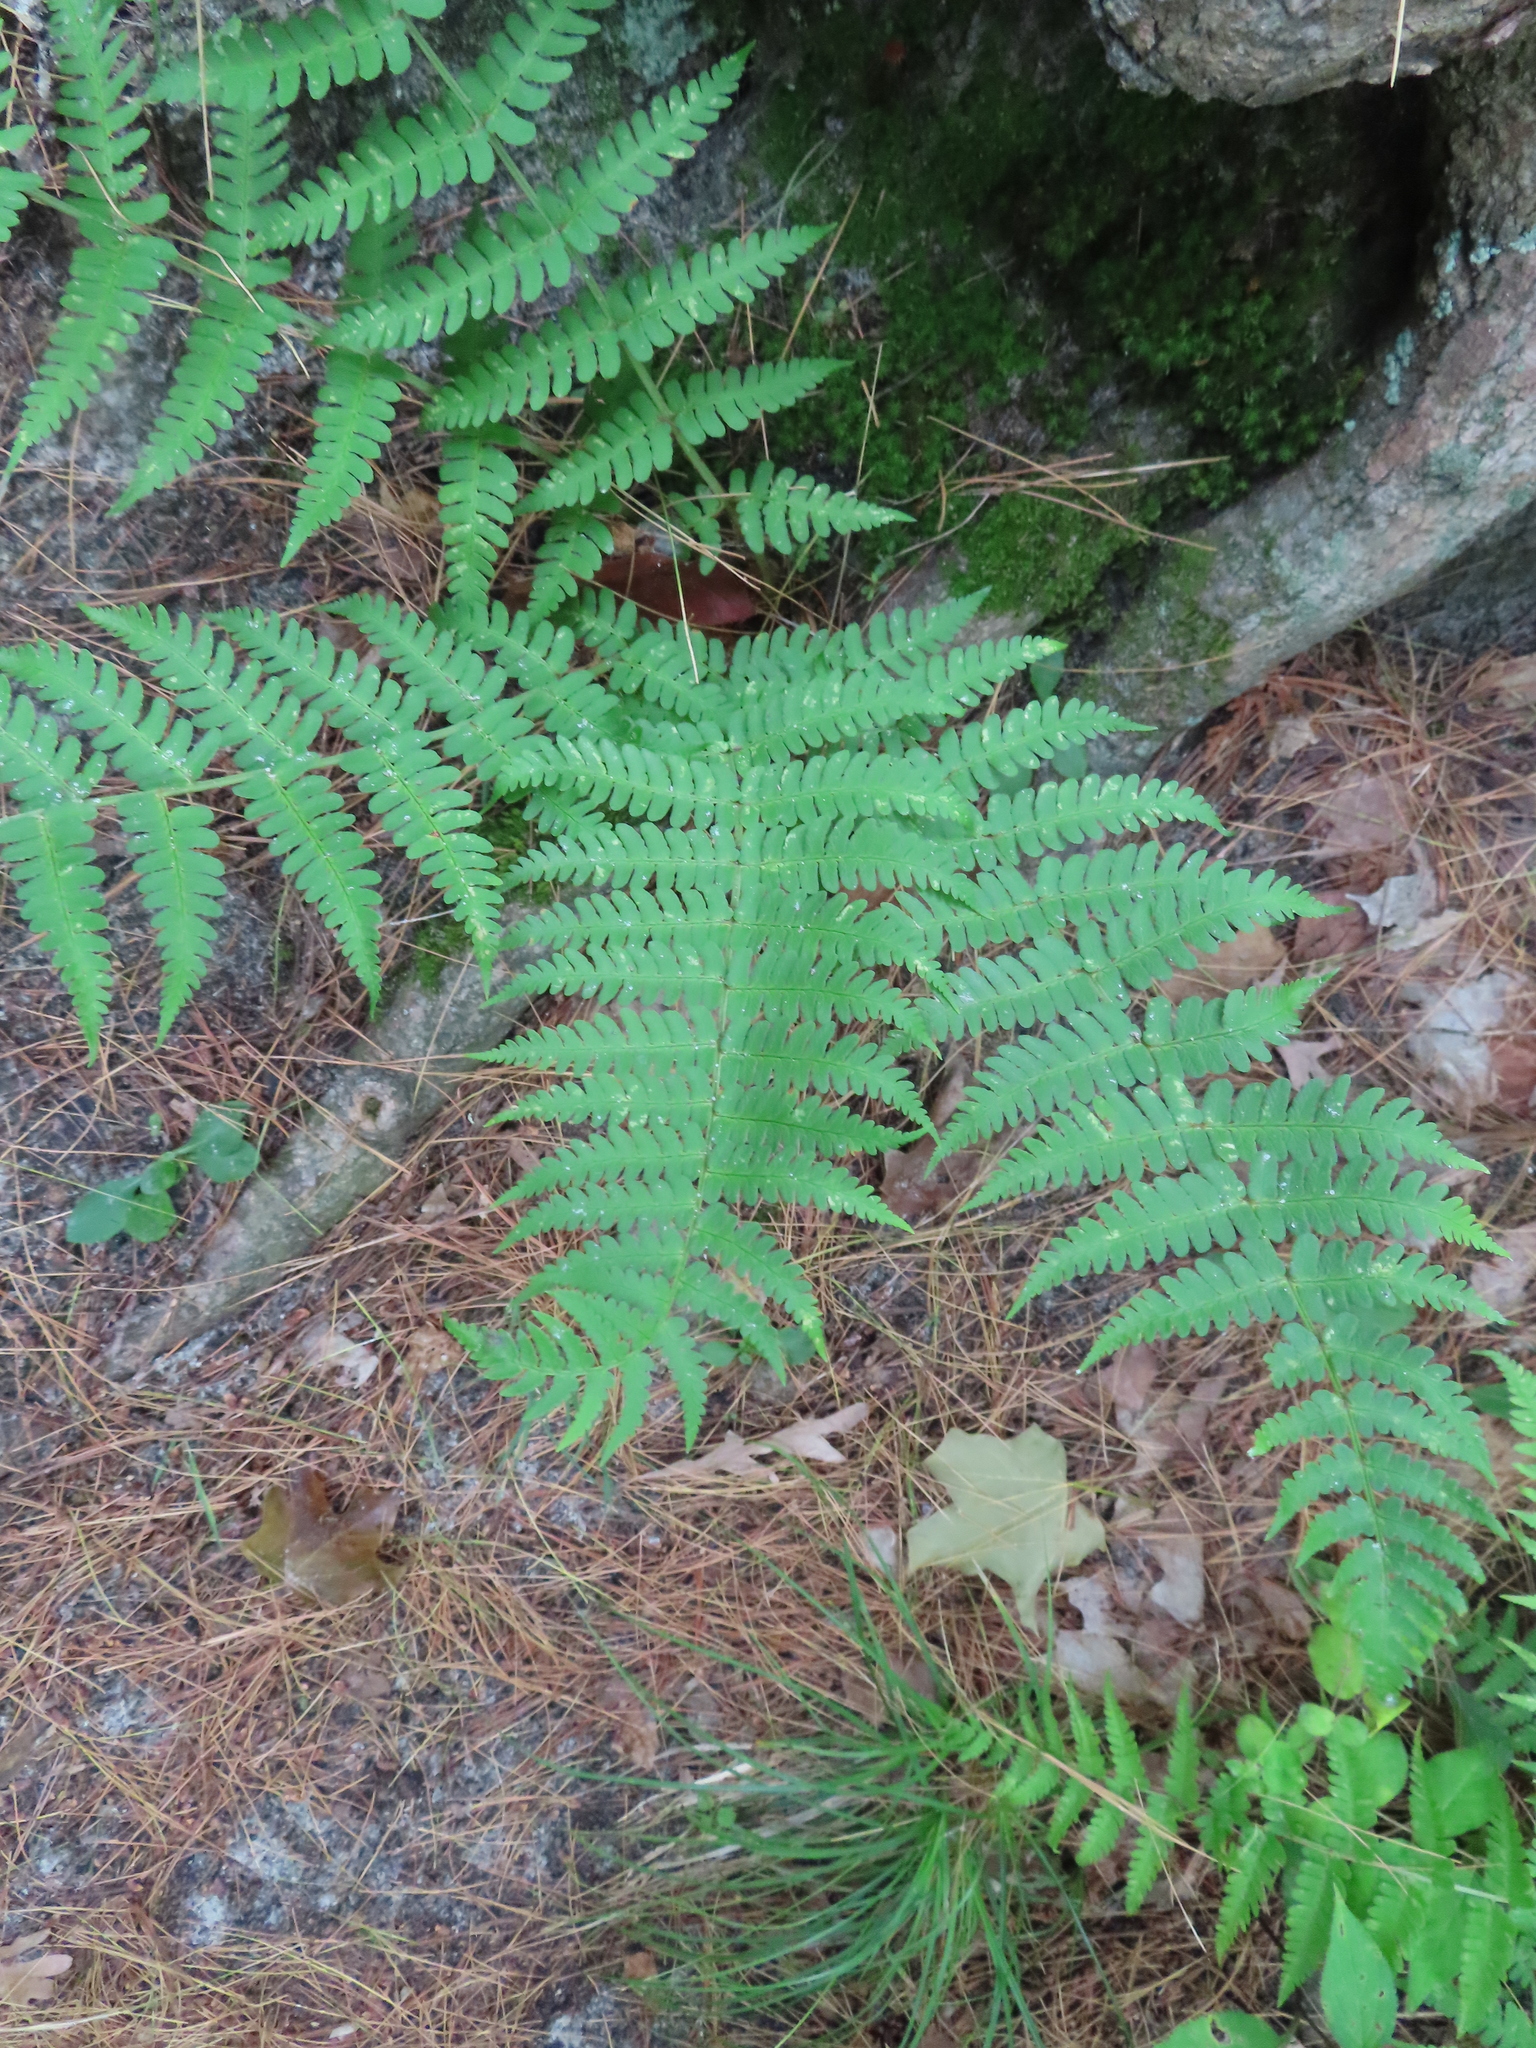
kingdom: Plantae
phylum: Tracheophyta
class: Polypodiopsida
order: Polypodiales
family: Dryopteridaceae
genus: Dryopteris
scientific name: Dryopteris marginalis
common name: Marginal wood fern
